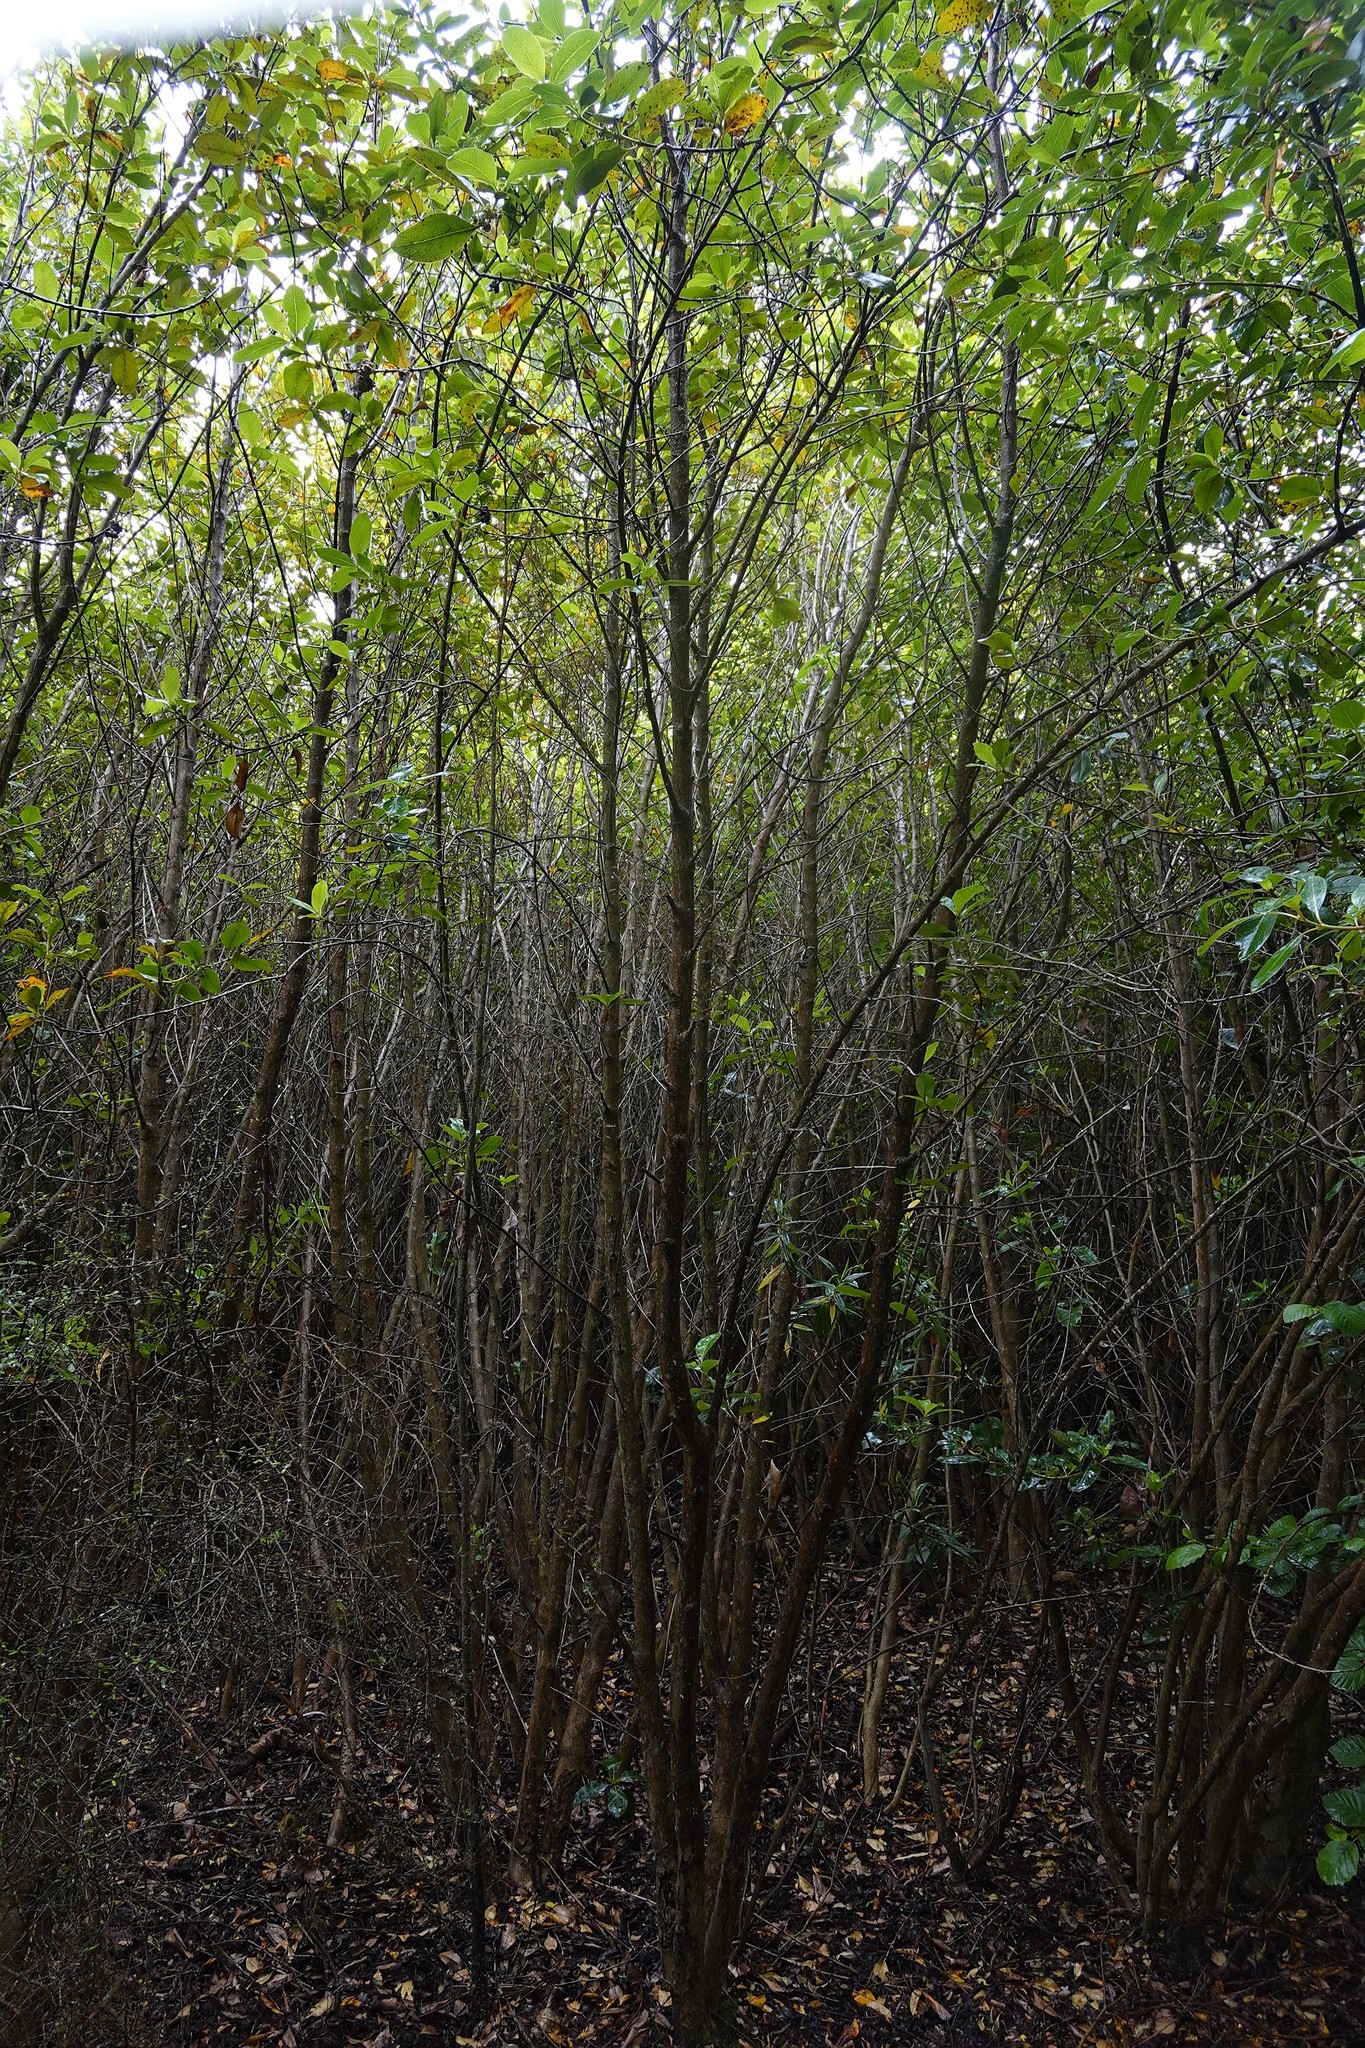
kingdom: Plantae
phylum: Tracheophyta
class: Magnoliopsida
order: Gentianales
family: Rubiaceae
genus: Coprosma
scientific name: Coprosma robusta
